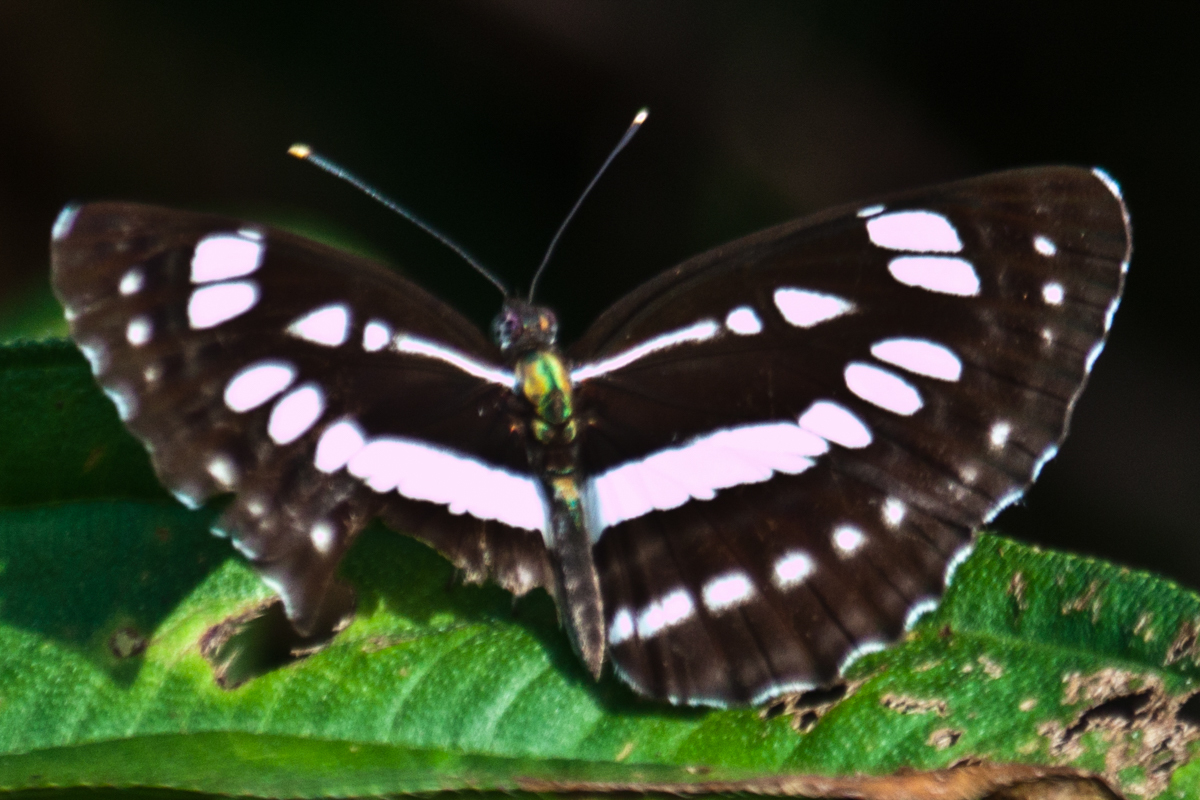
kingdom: Animalia
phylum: Arthropoda
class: Insecta
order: Lepidoptera
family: Nymphalidae
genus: Neptis
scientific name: Neptis hylas
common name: Common sailer
